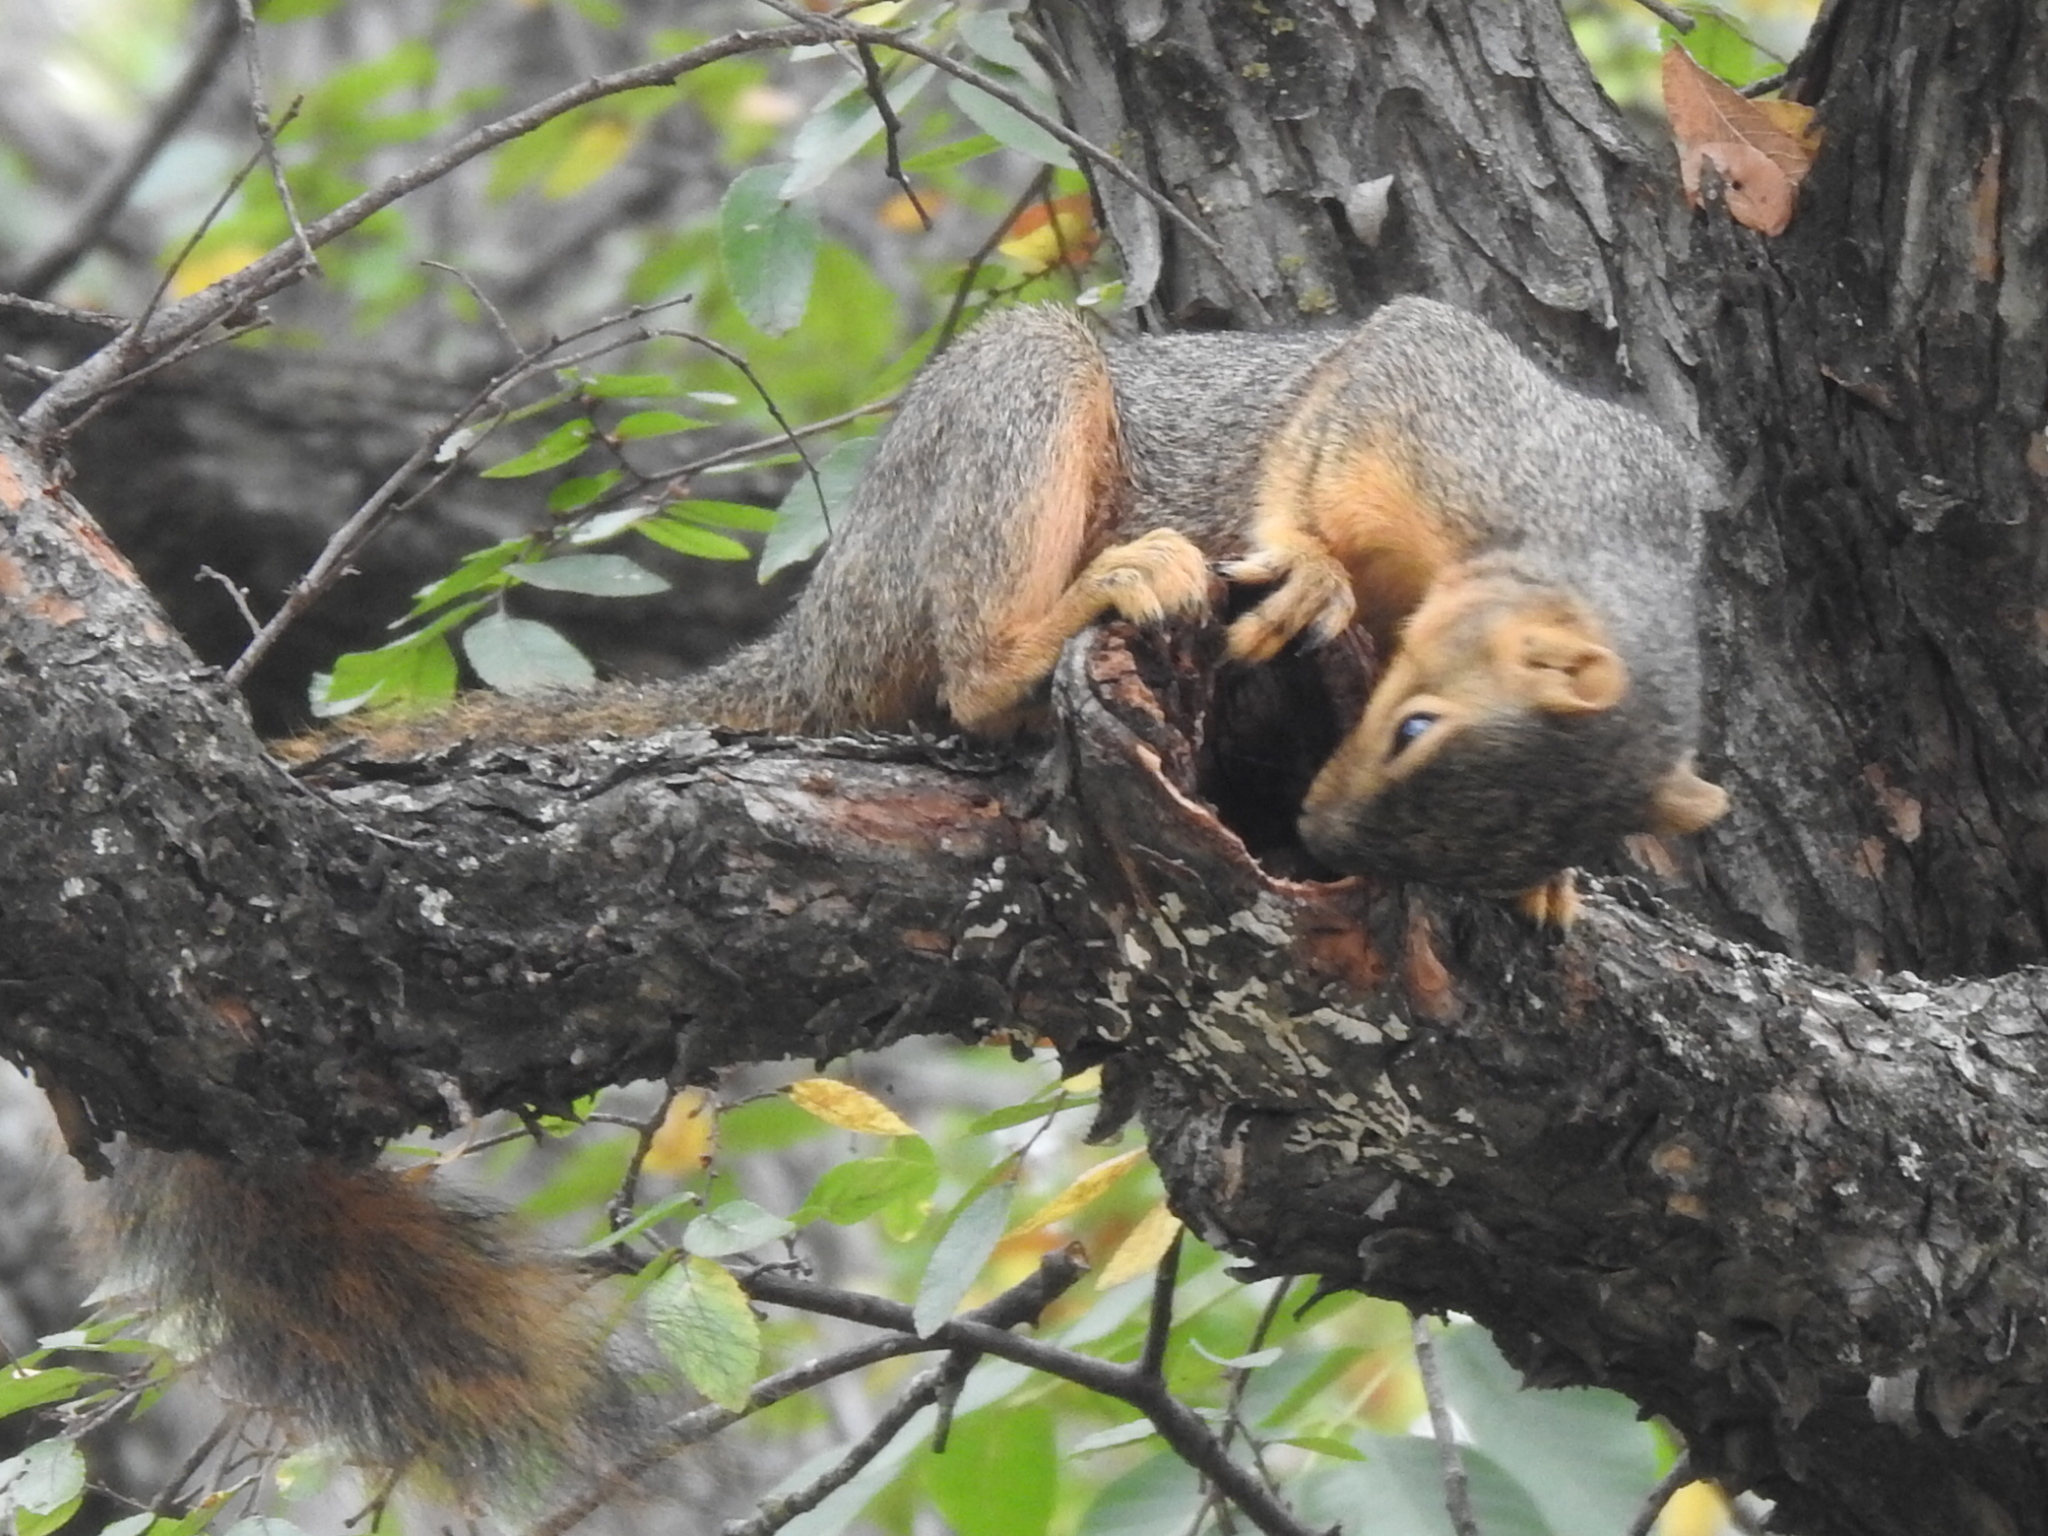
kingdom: Animalia
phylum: Chordata
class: Mammalia
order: Rodentia
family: Sciuridae
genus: Sciurus
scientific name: Sciurus niger
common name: Fox squirrel
